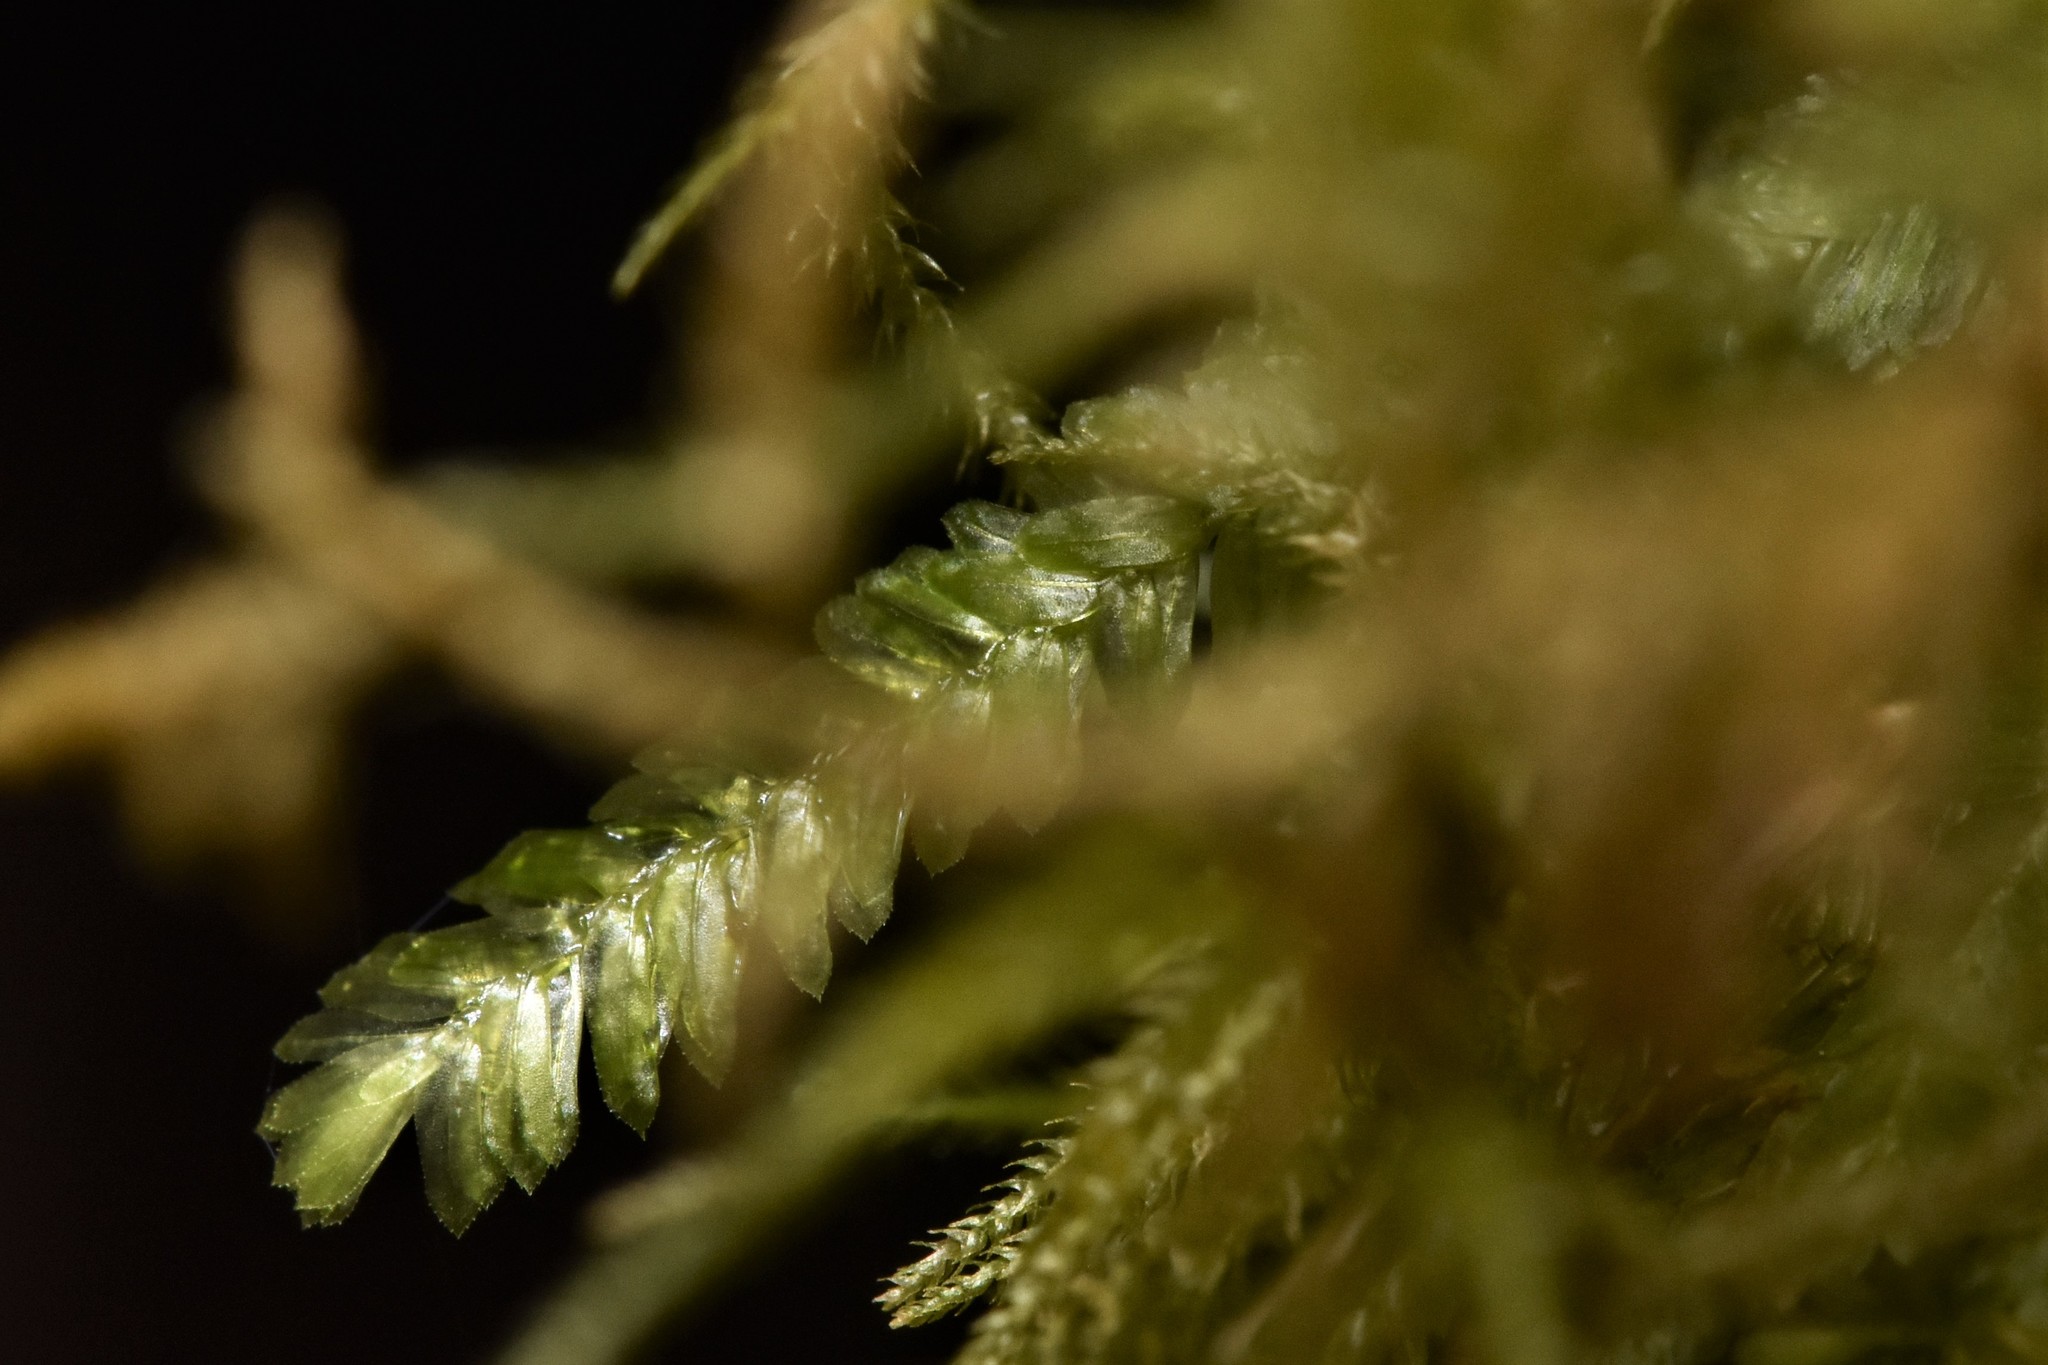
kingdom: Plantae
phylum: Bryophyta
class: Bryopsida
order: Hypnales
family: Neckeraceae
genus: Dannorrisia
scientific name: Dannorrisia bigelovii
